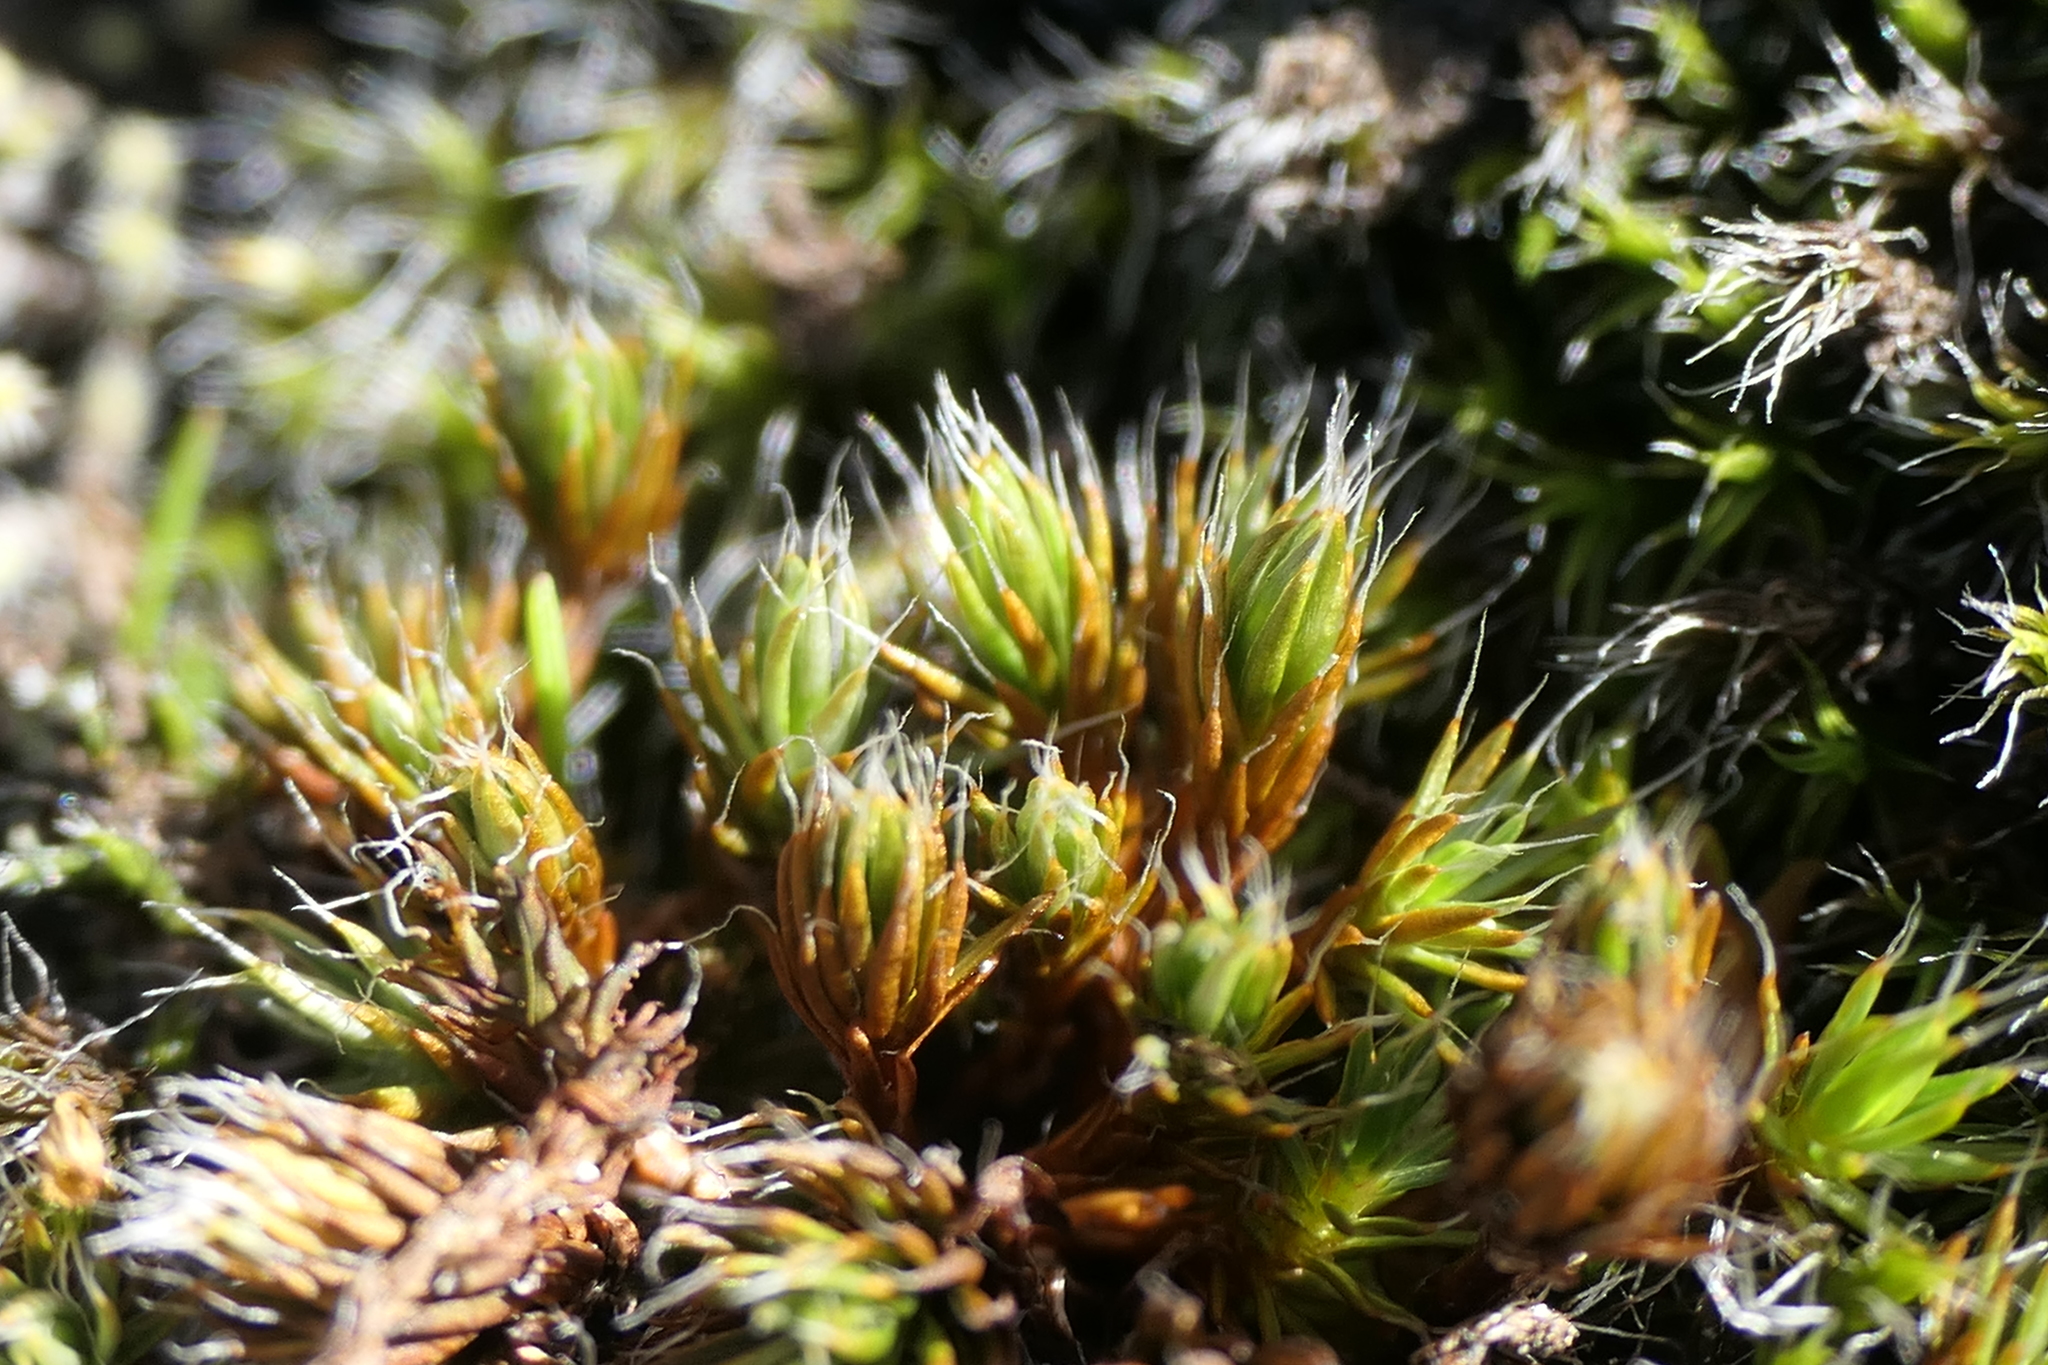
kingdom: Plantae
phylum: Bryophyta
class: Polytrichopsida
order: Polytrichales
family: Polytrichaceae
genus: Polytrichum
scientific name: Polytrichum piliferum
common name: Bristly haircap
